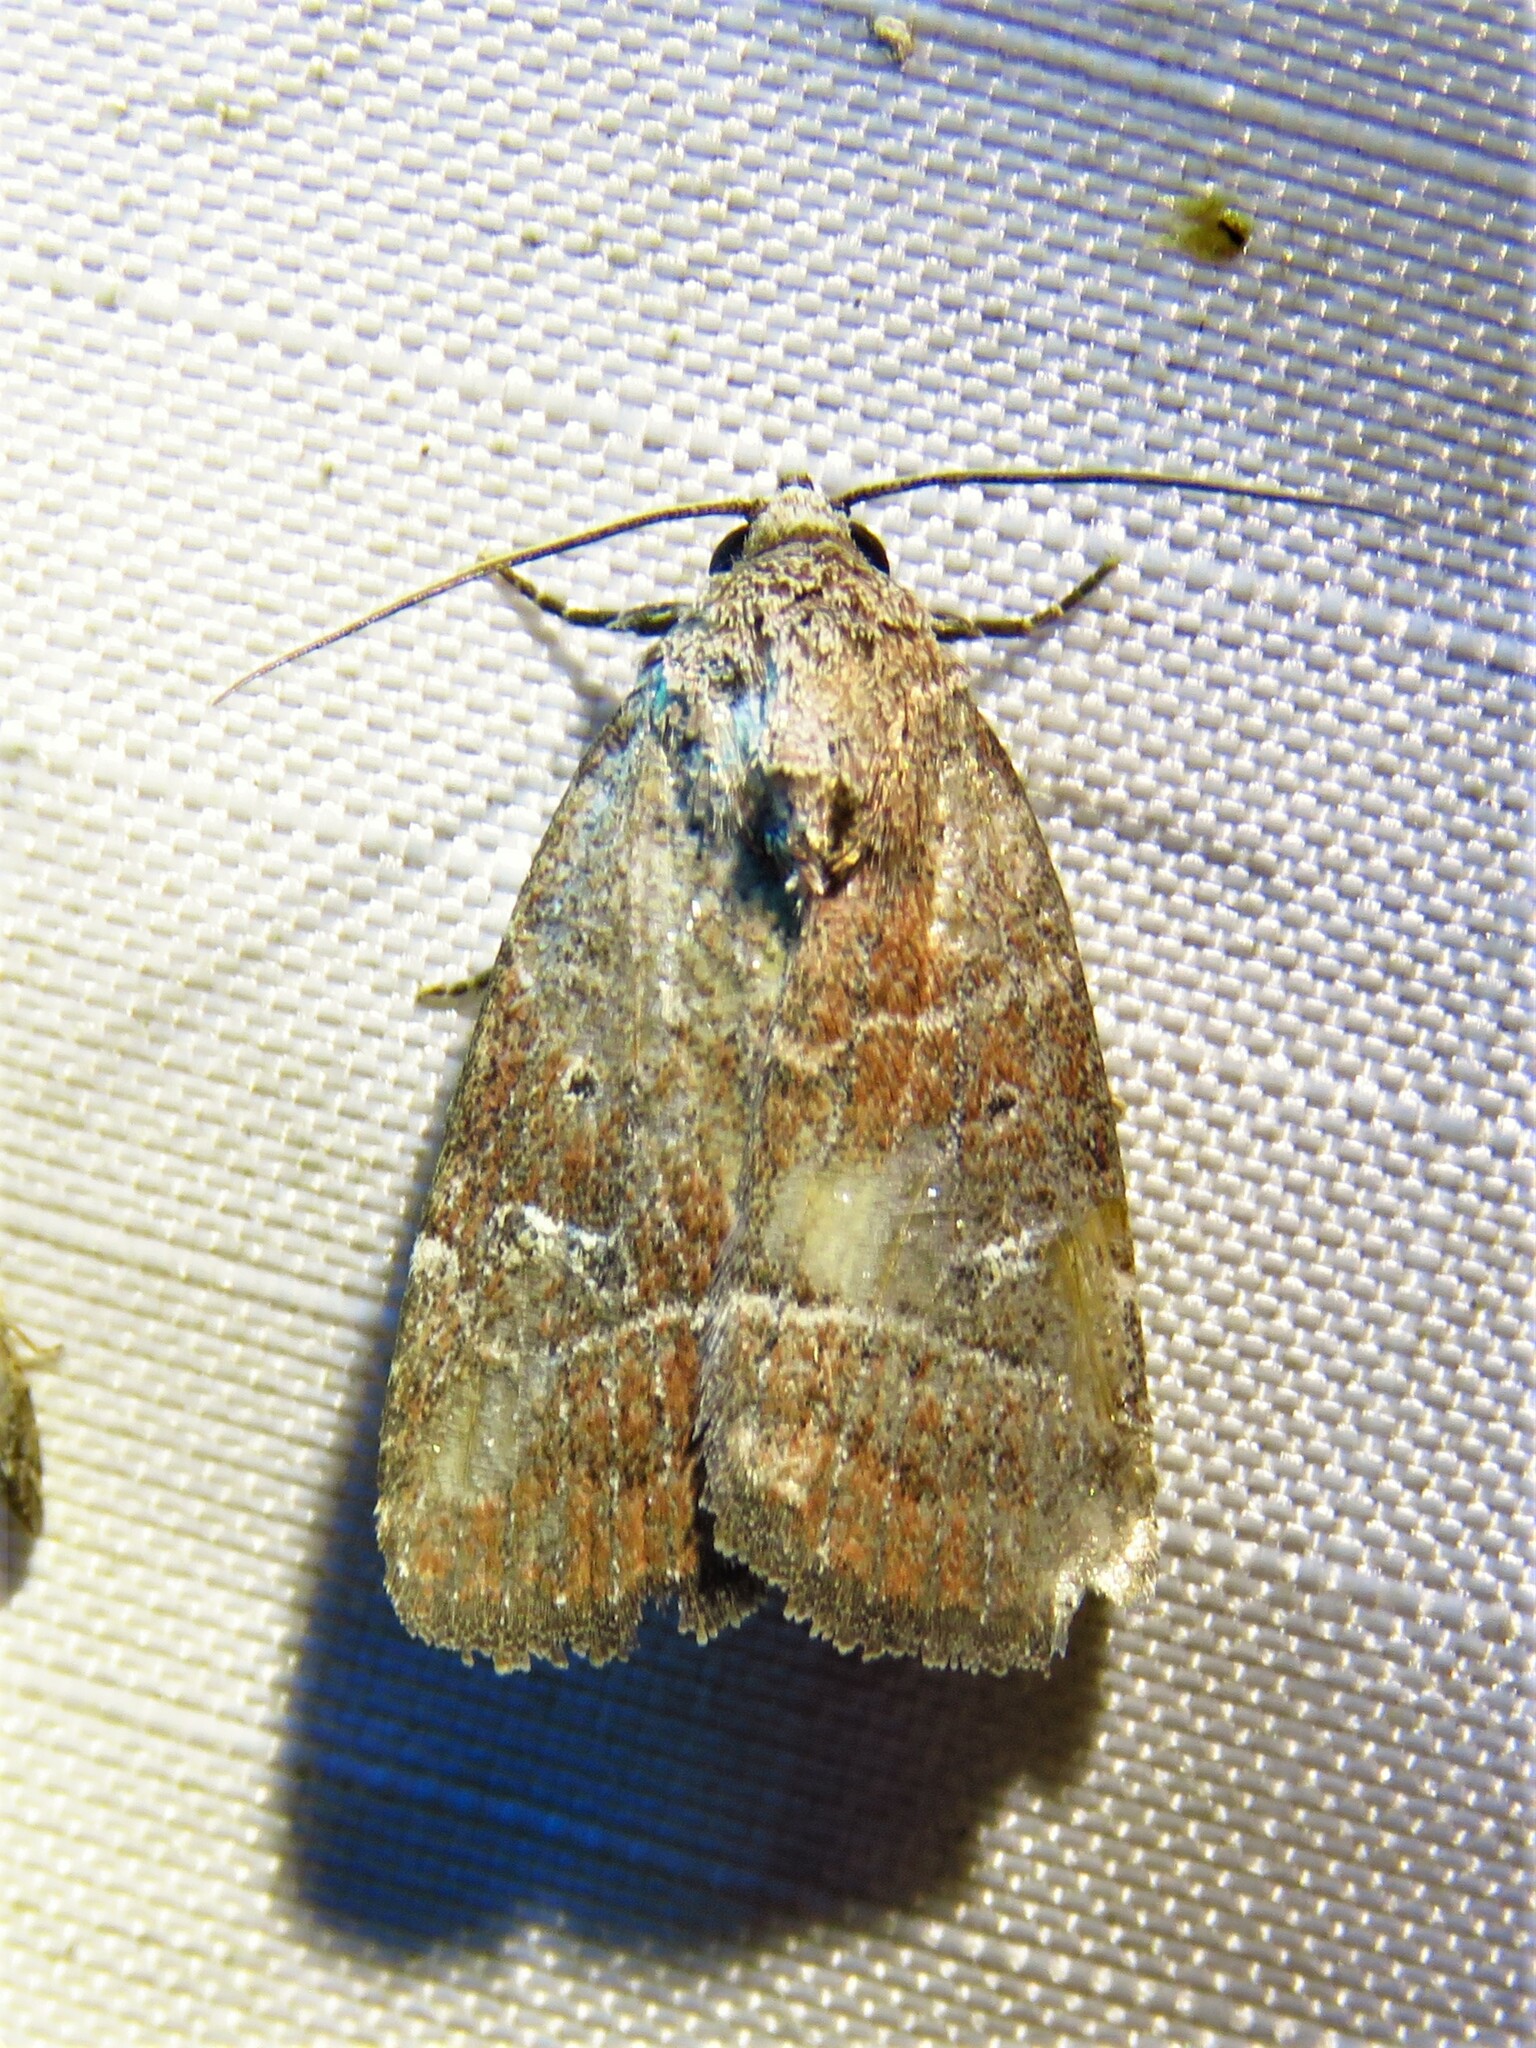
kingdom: Animalia
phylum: Arthropoda
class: Insecta
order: Lepidoptera
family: Noctuidae
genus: Elaphria
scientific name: Elaphria grata
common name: Grateful midget moth
